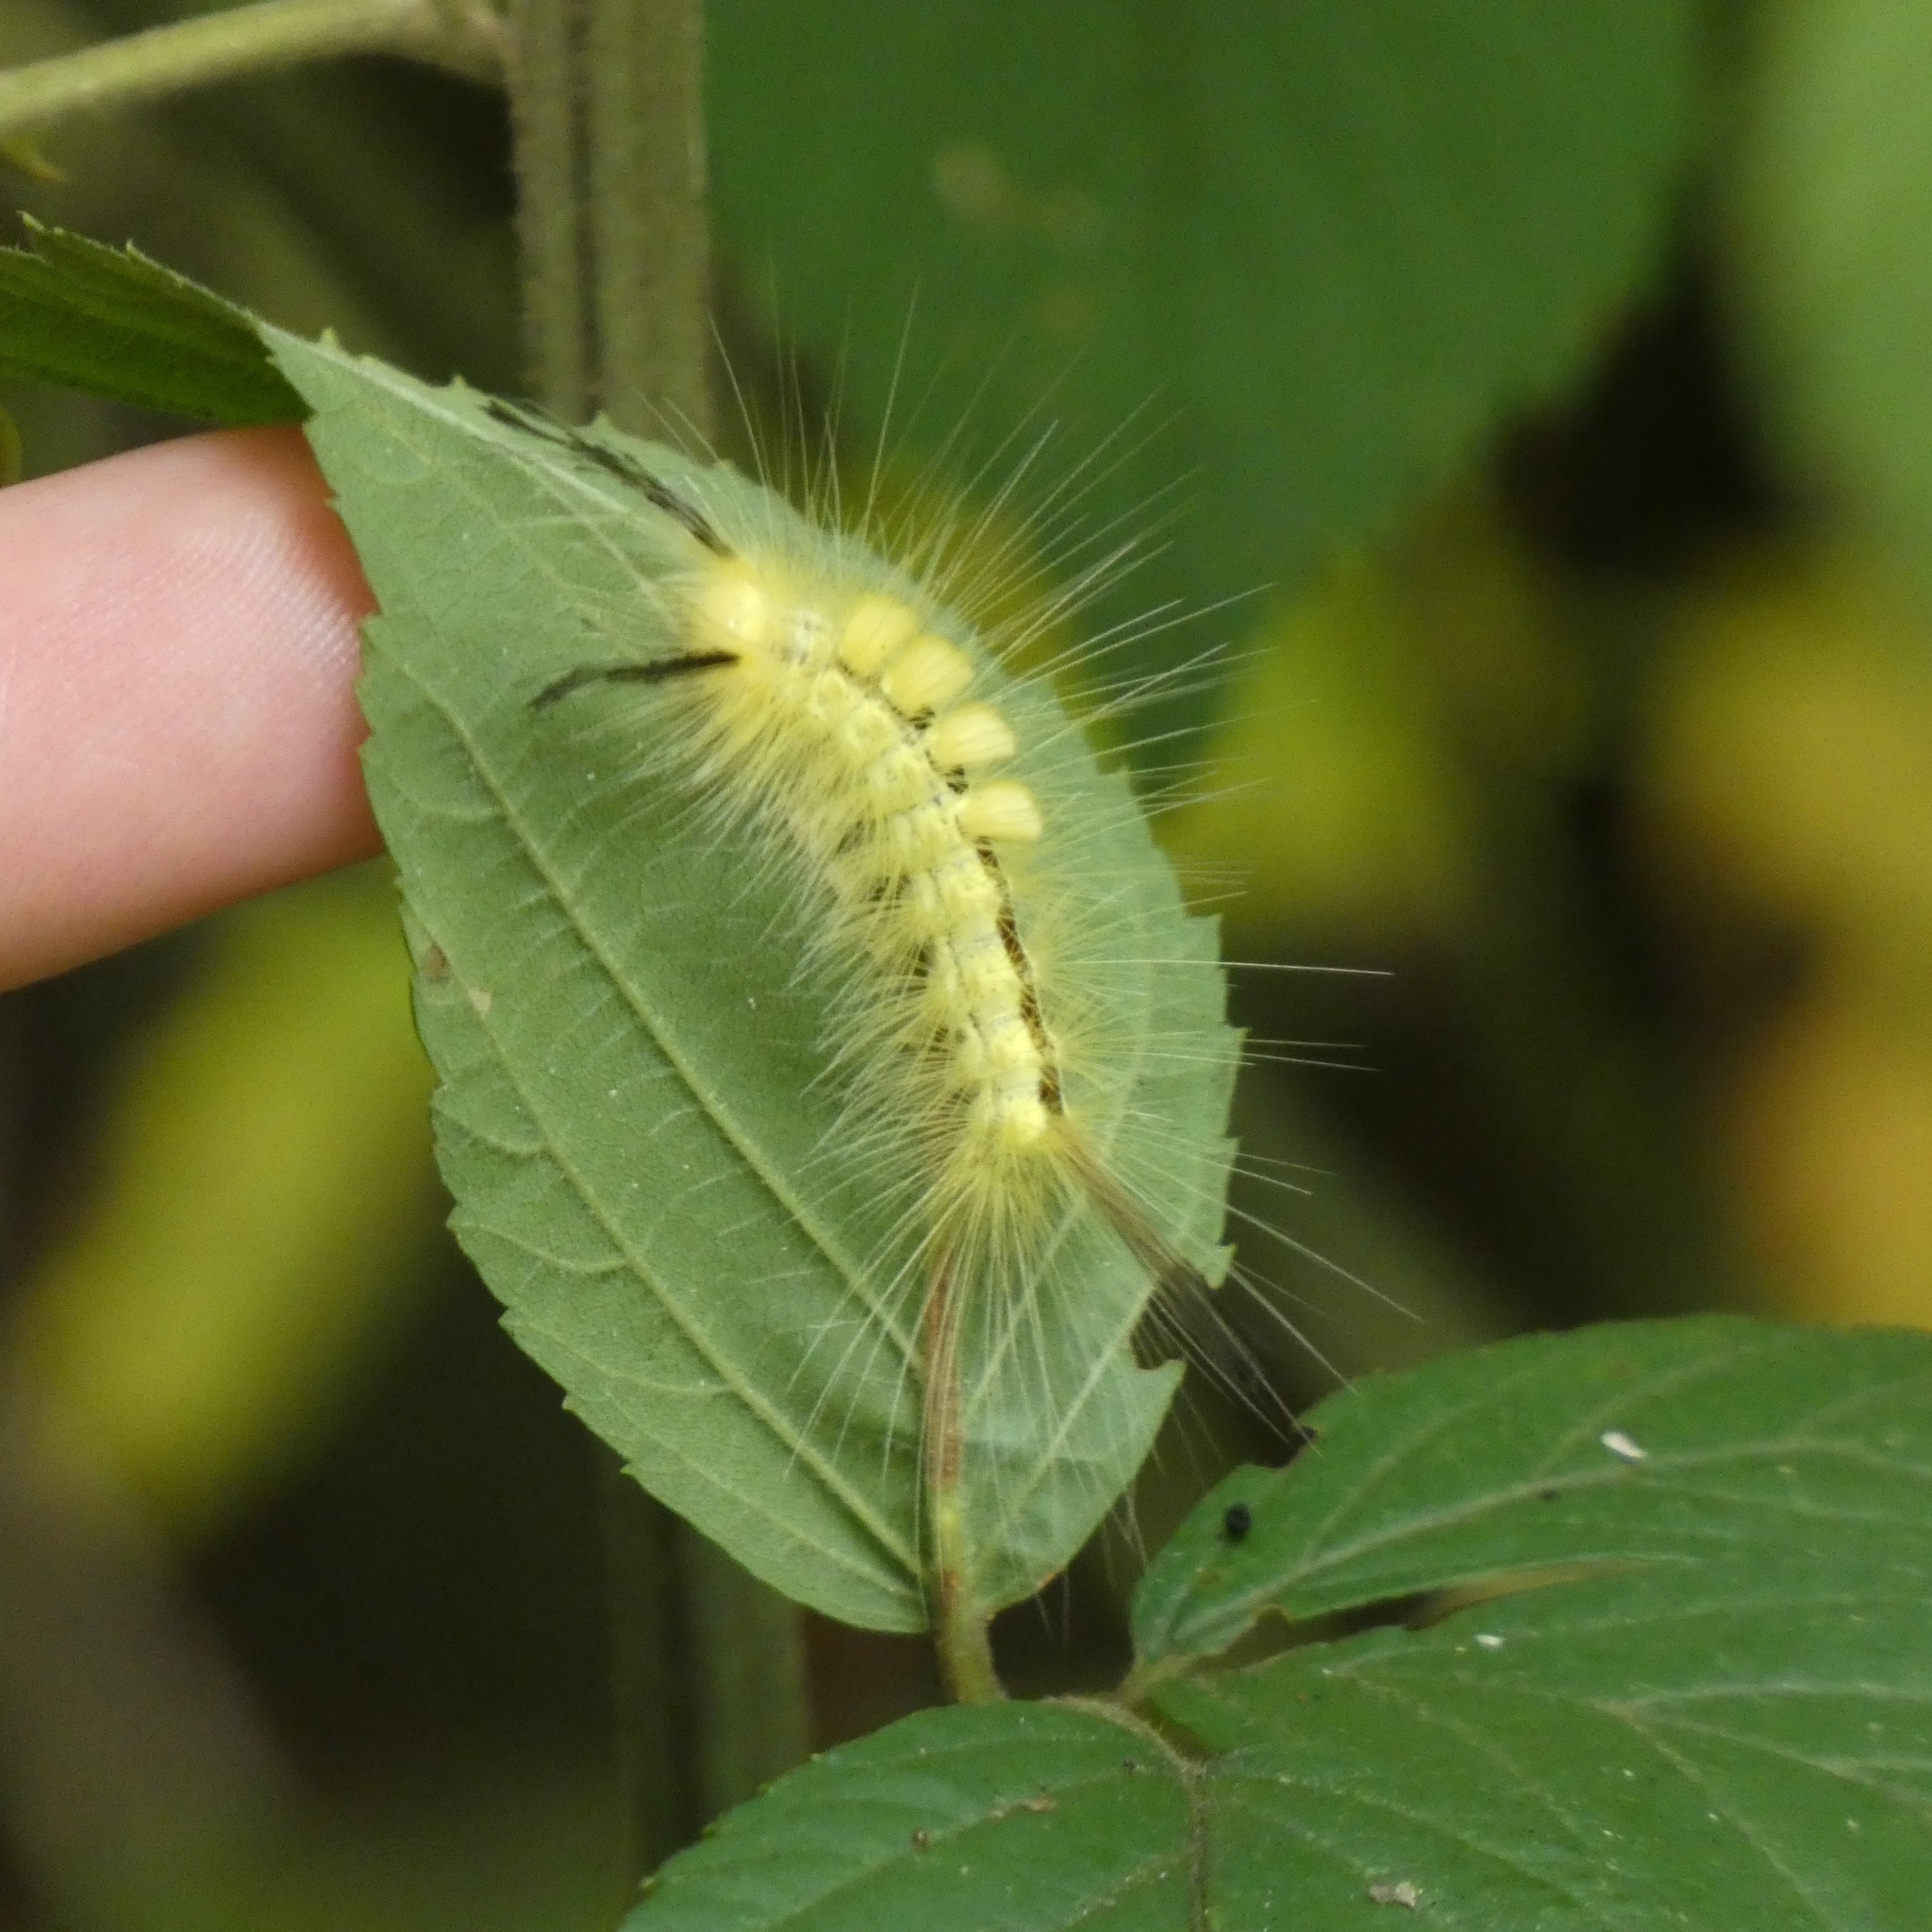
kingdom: Animalia
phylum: Arthropoda
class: Insecta
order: Lepidoptera
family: Erebidae
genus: Orgyia
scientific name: Orgyia definita
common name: Definite tussock moth
